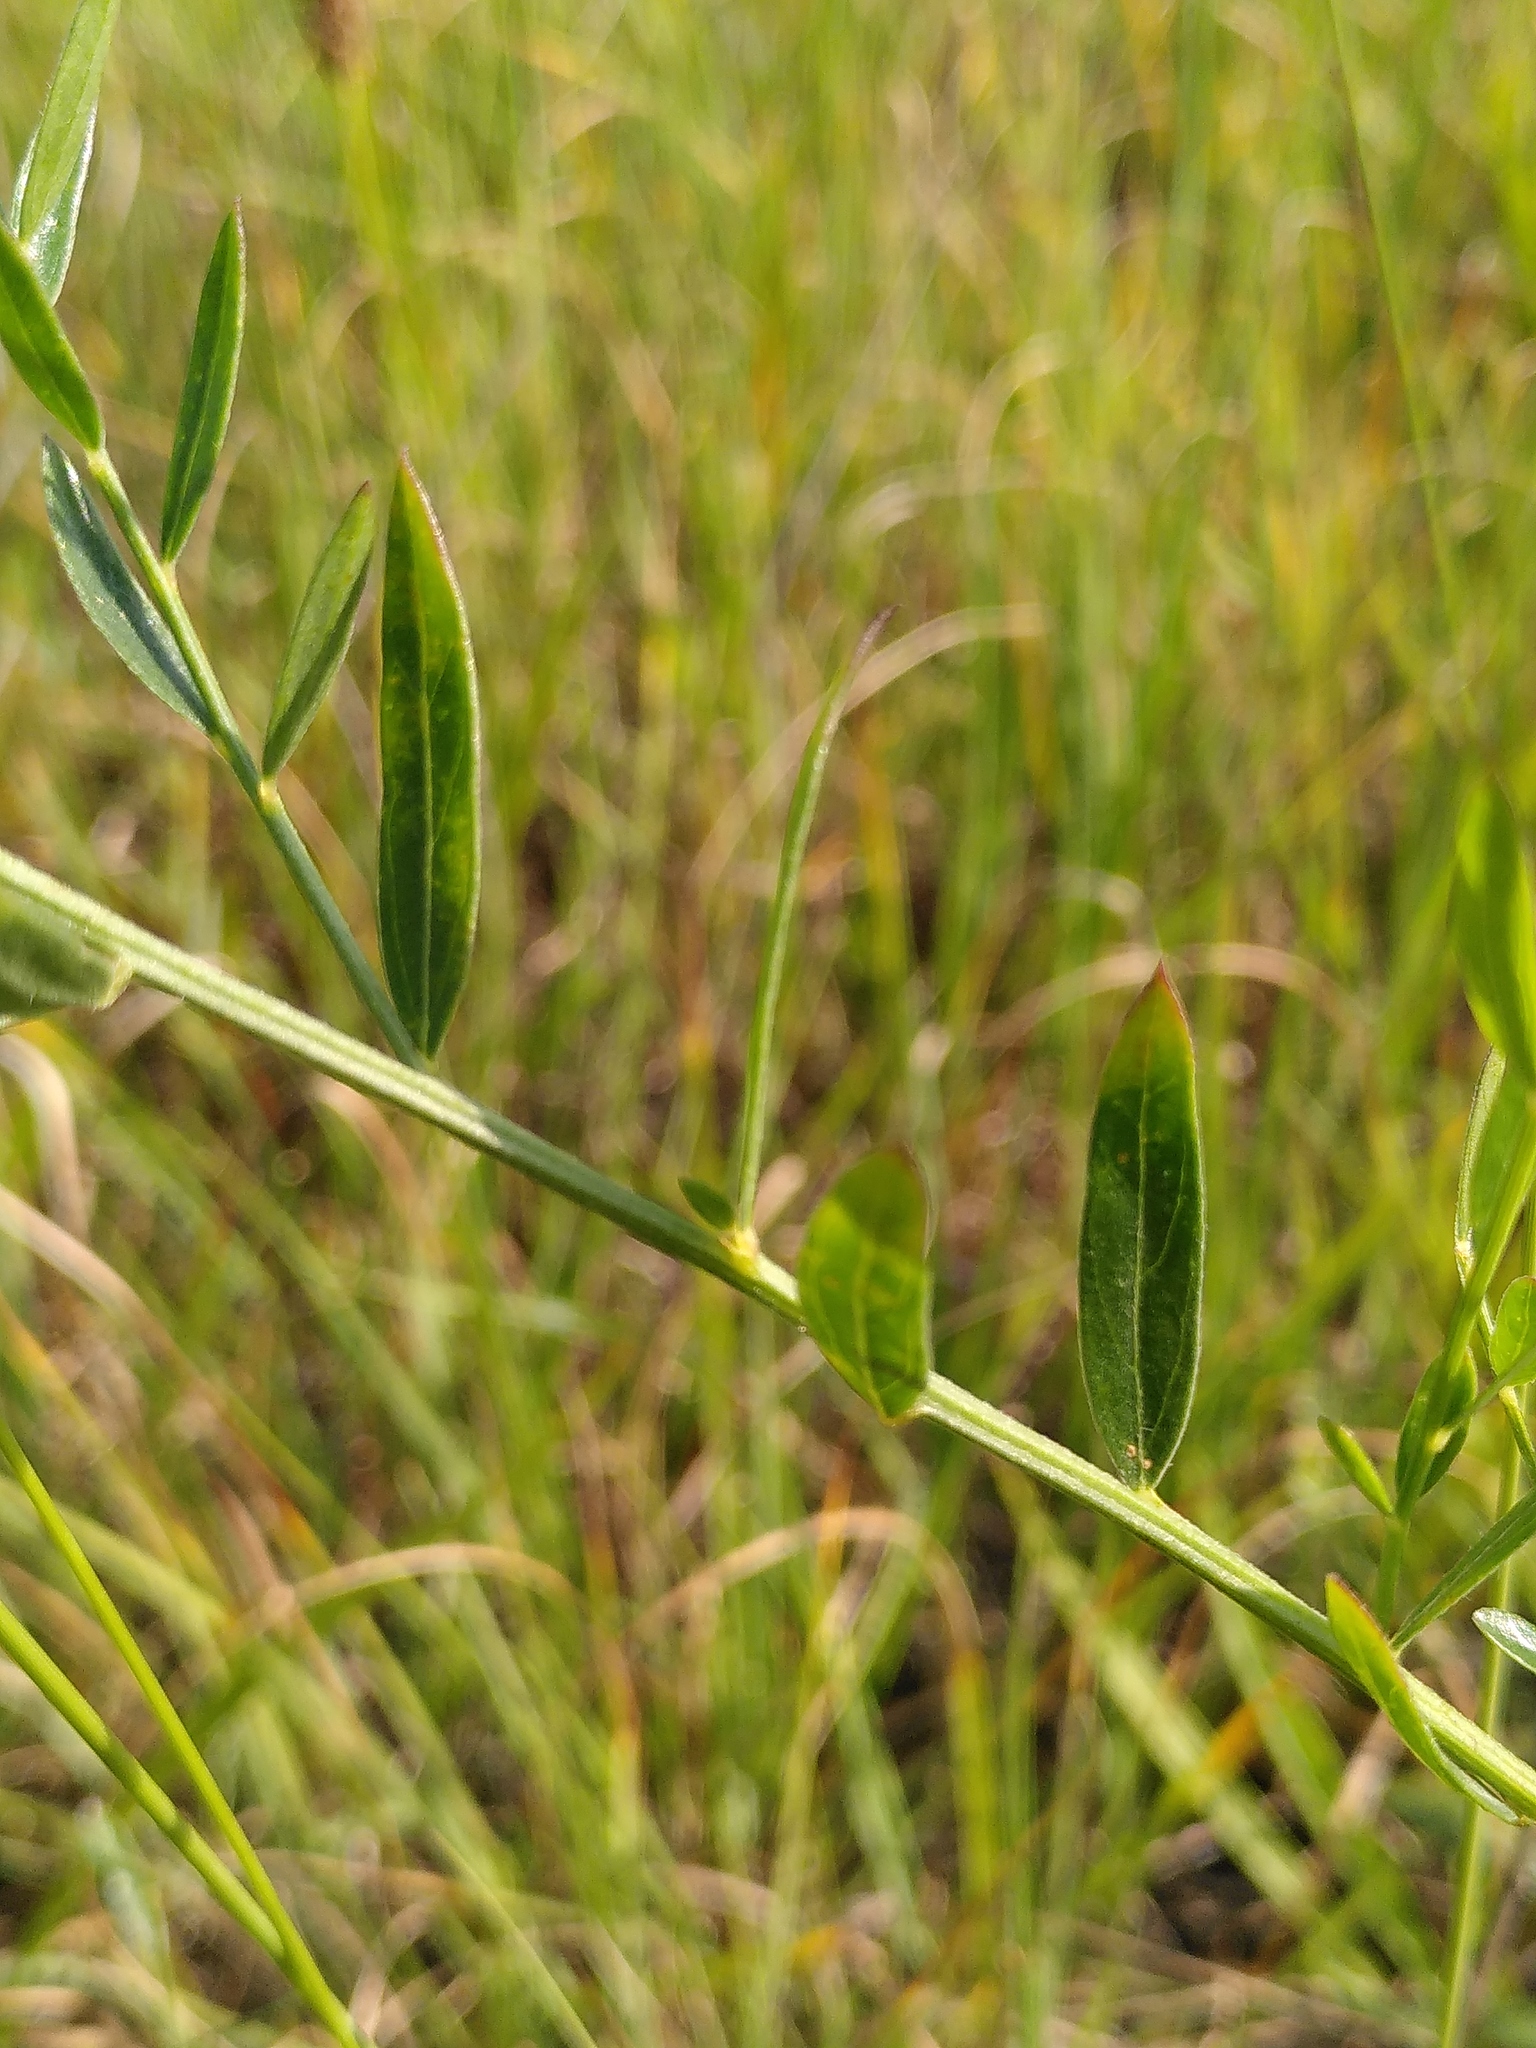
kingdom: Plantae
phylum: Tracheophyta
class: Magnoliopsida
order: Fabales
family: Fabaceae
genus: Genista
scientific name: Genista tinctoria
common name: Dyer's greenweed
